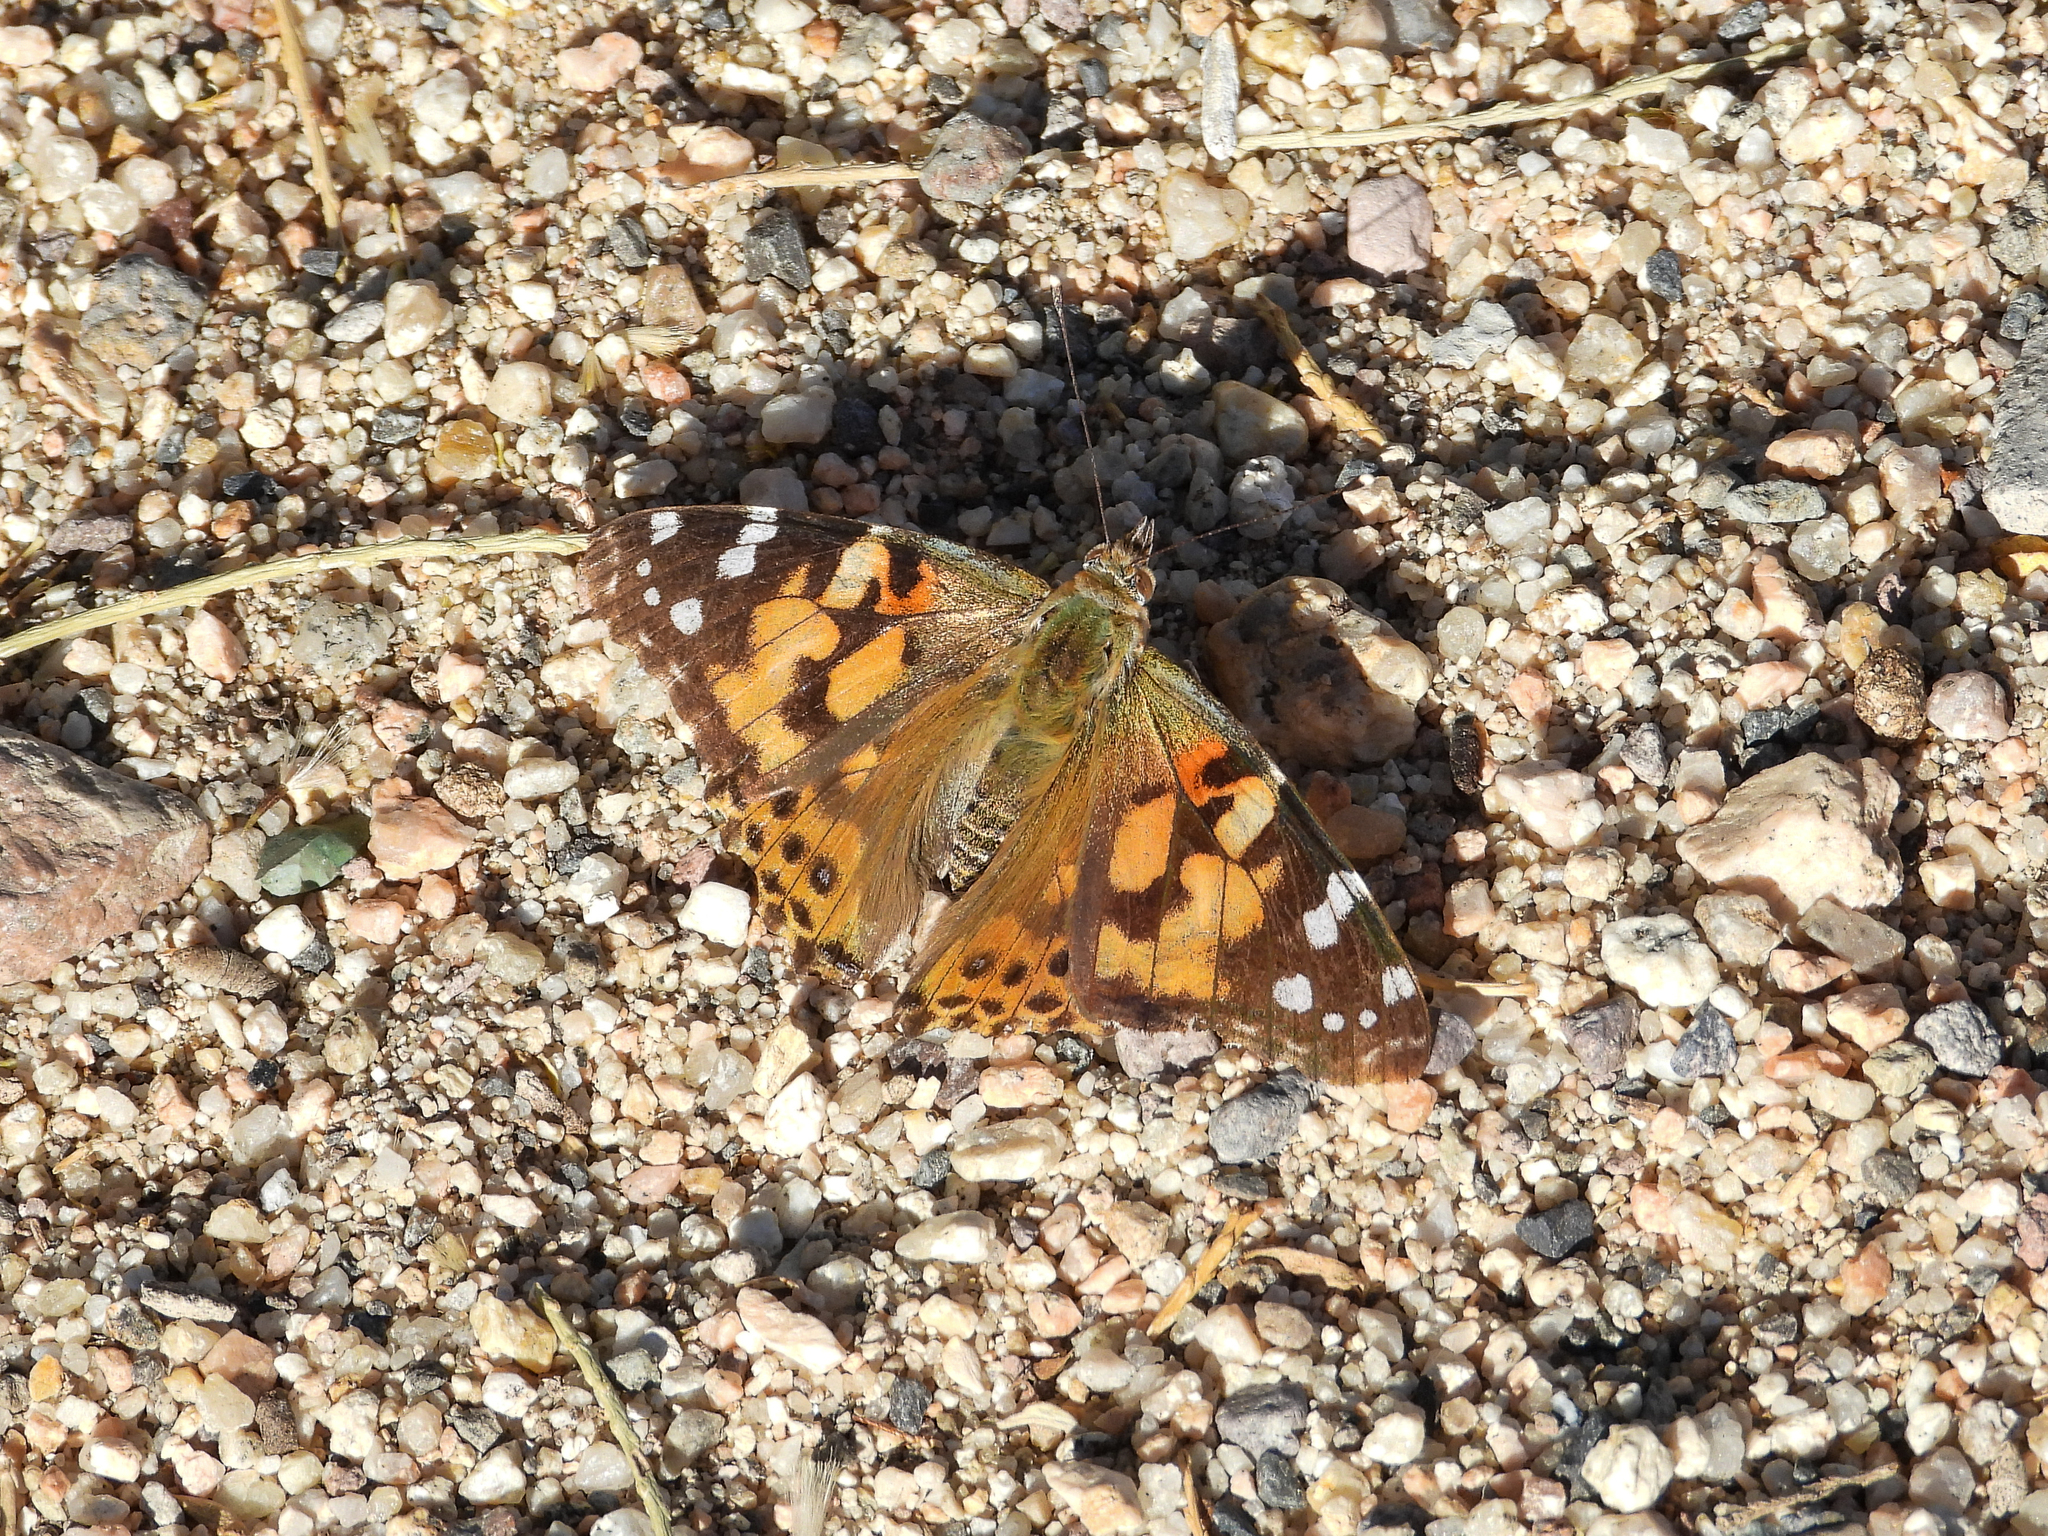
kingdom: Animalia
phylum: Arthropoda
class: Insecta
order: Lepidoptera
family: Nymphalidae
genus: Vanessa
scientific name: Vanessa cardui
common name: Painted lady
